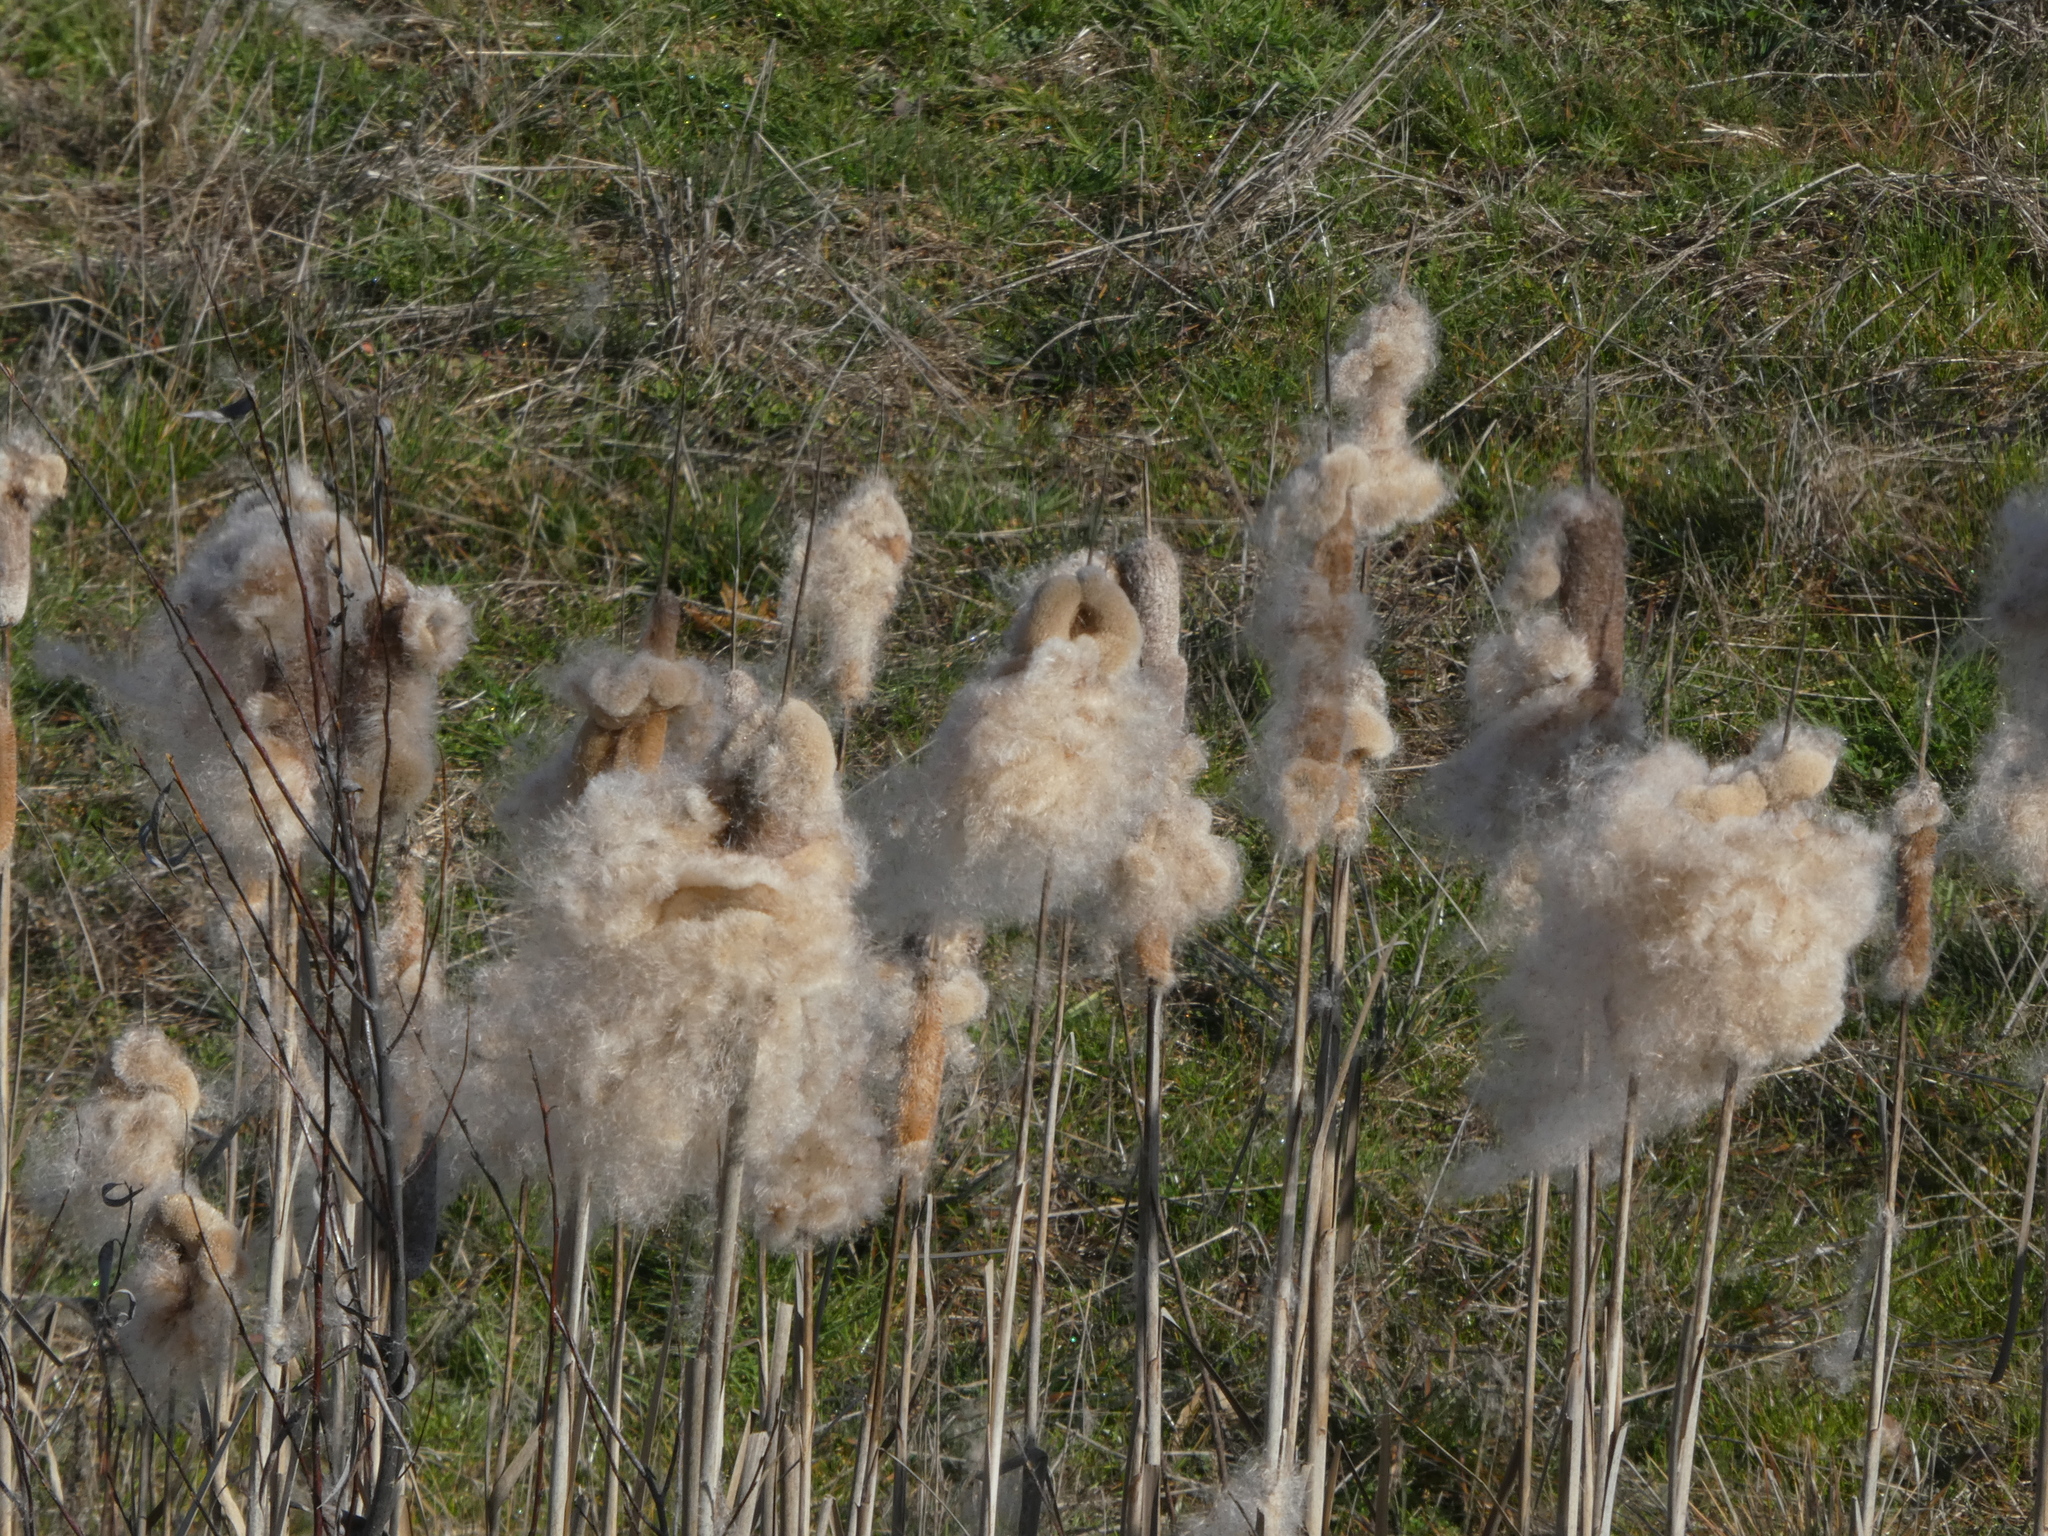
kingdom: Plantae
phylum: Tracheophyta
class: Liliopsida
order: Poales
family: Typhaceae
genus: Typha
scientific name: Typha latifolia
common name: Broadleaf cattail
